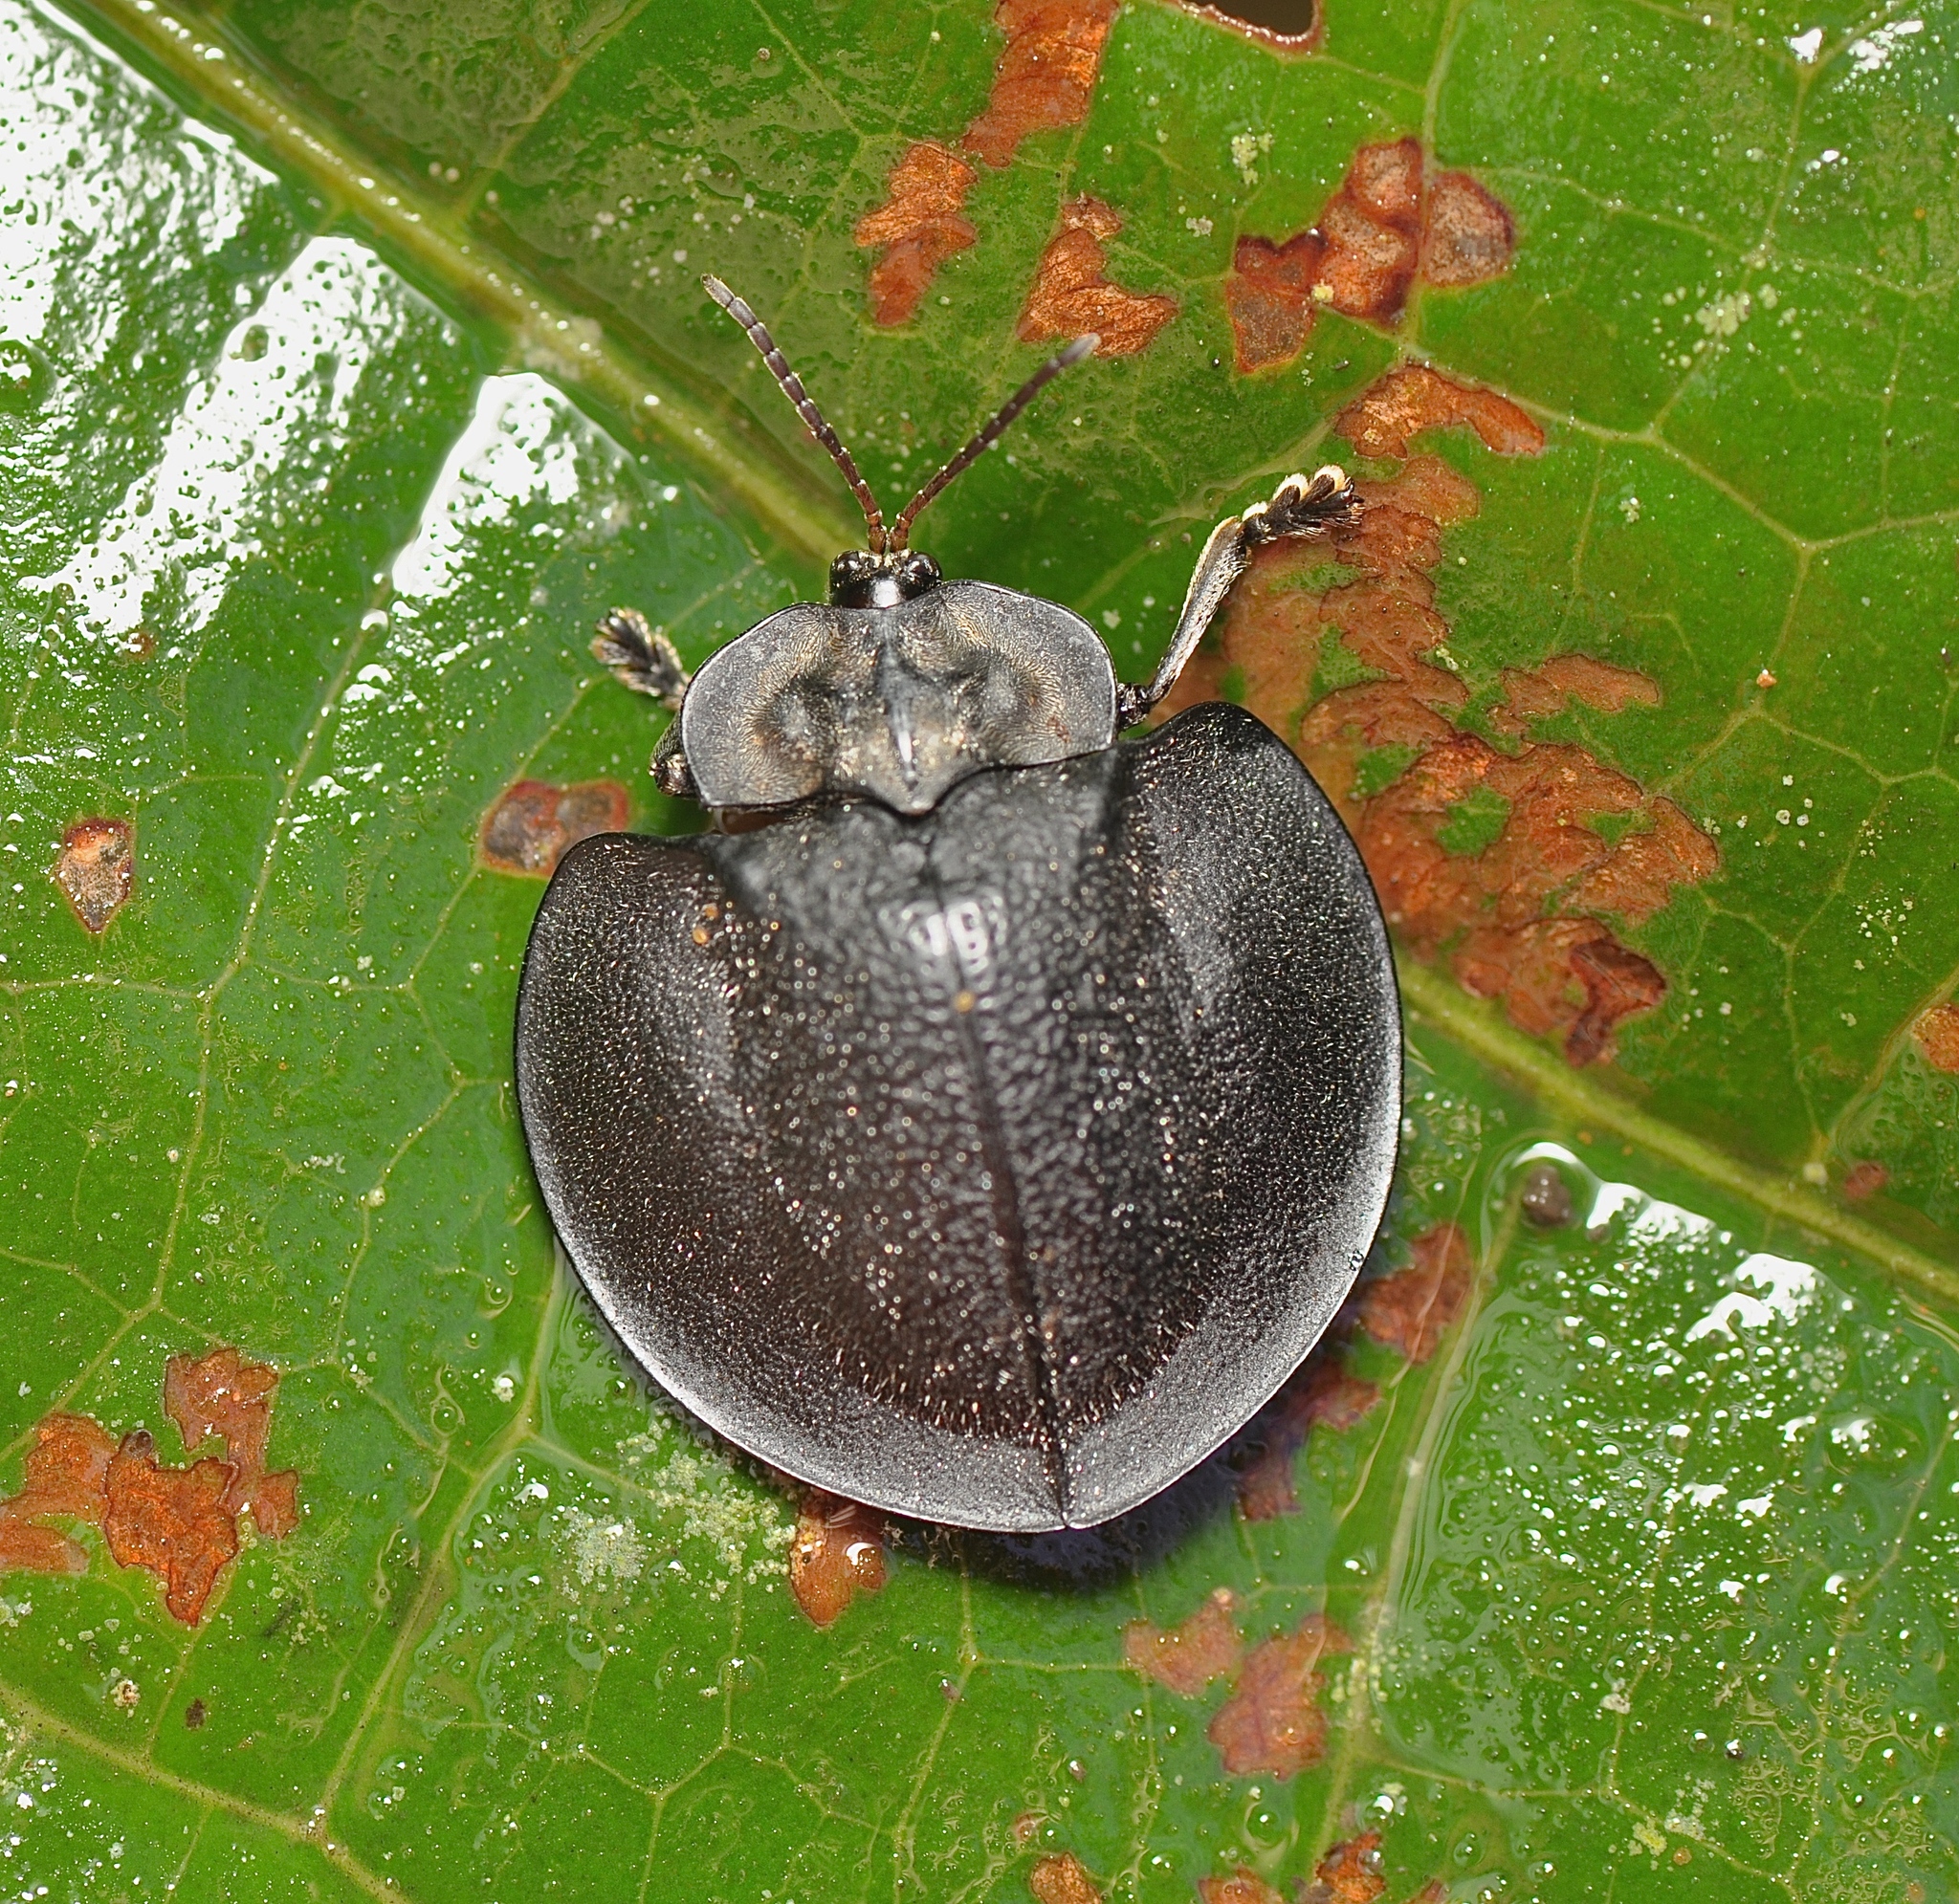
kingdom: Animalia
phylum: Arthropoda
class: Insecta
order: Coleoptera
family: Chrysomelidae
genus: Stolas
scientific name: Stolas puberula
